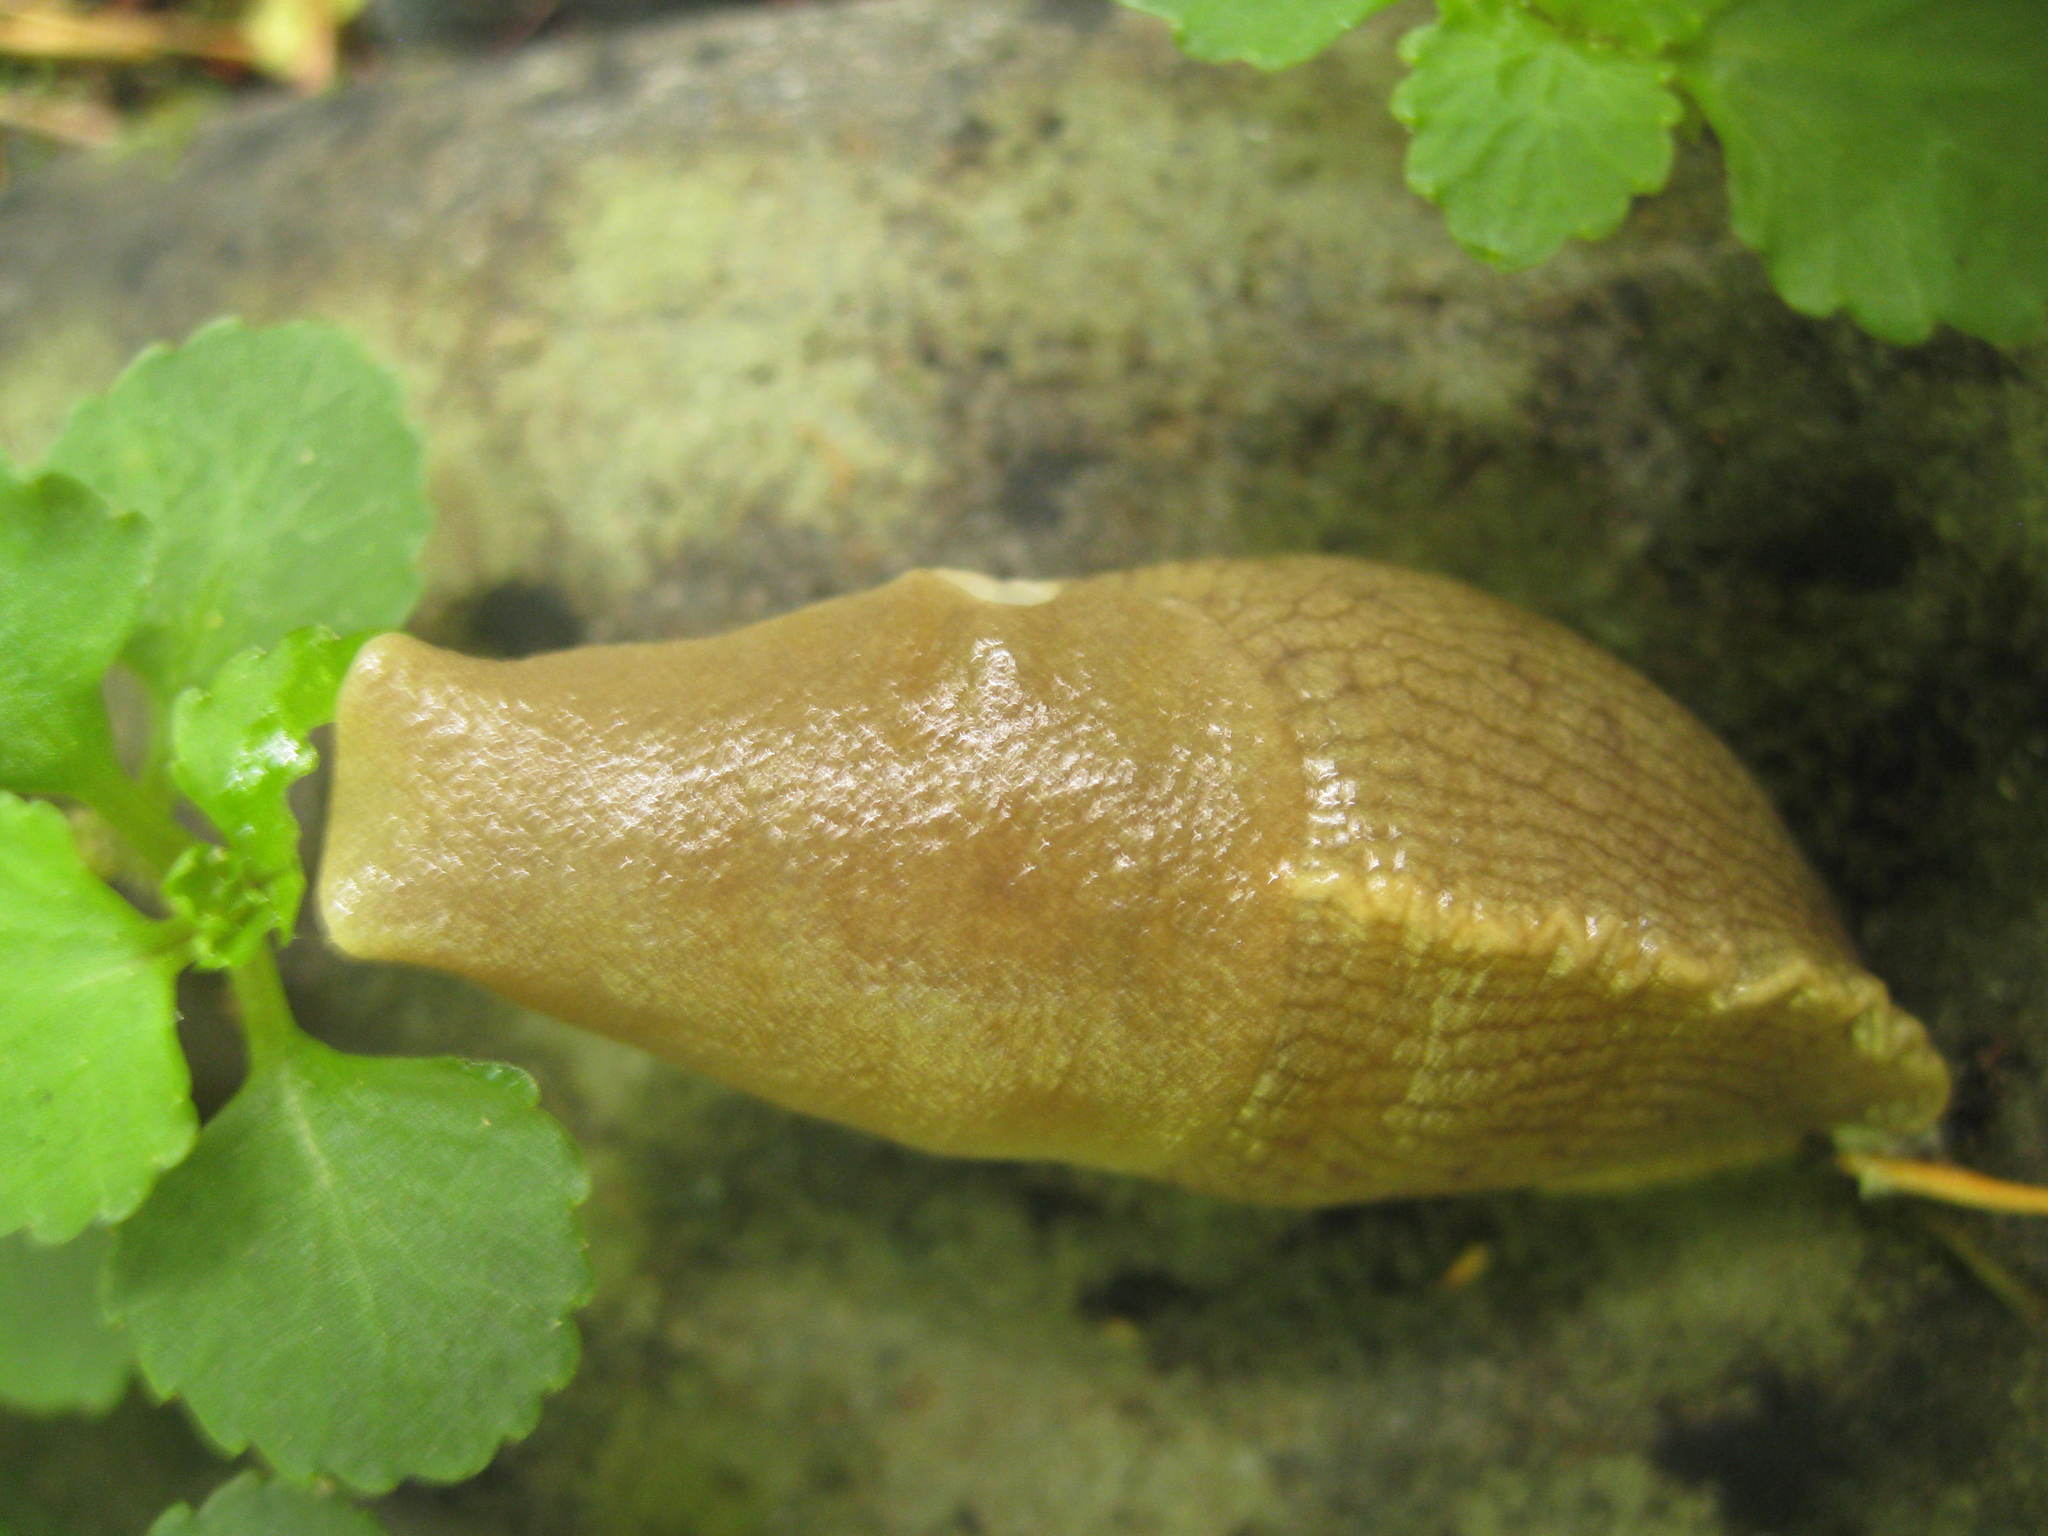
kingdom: Animalia
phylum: Mollusca
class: Gastropoda
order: Stylommatophora
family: Ariolimacidae
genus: Ariolimax
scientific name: Ariolimax columbianus
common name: Pacific banana slug
